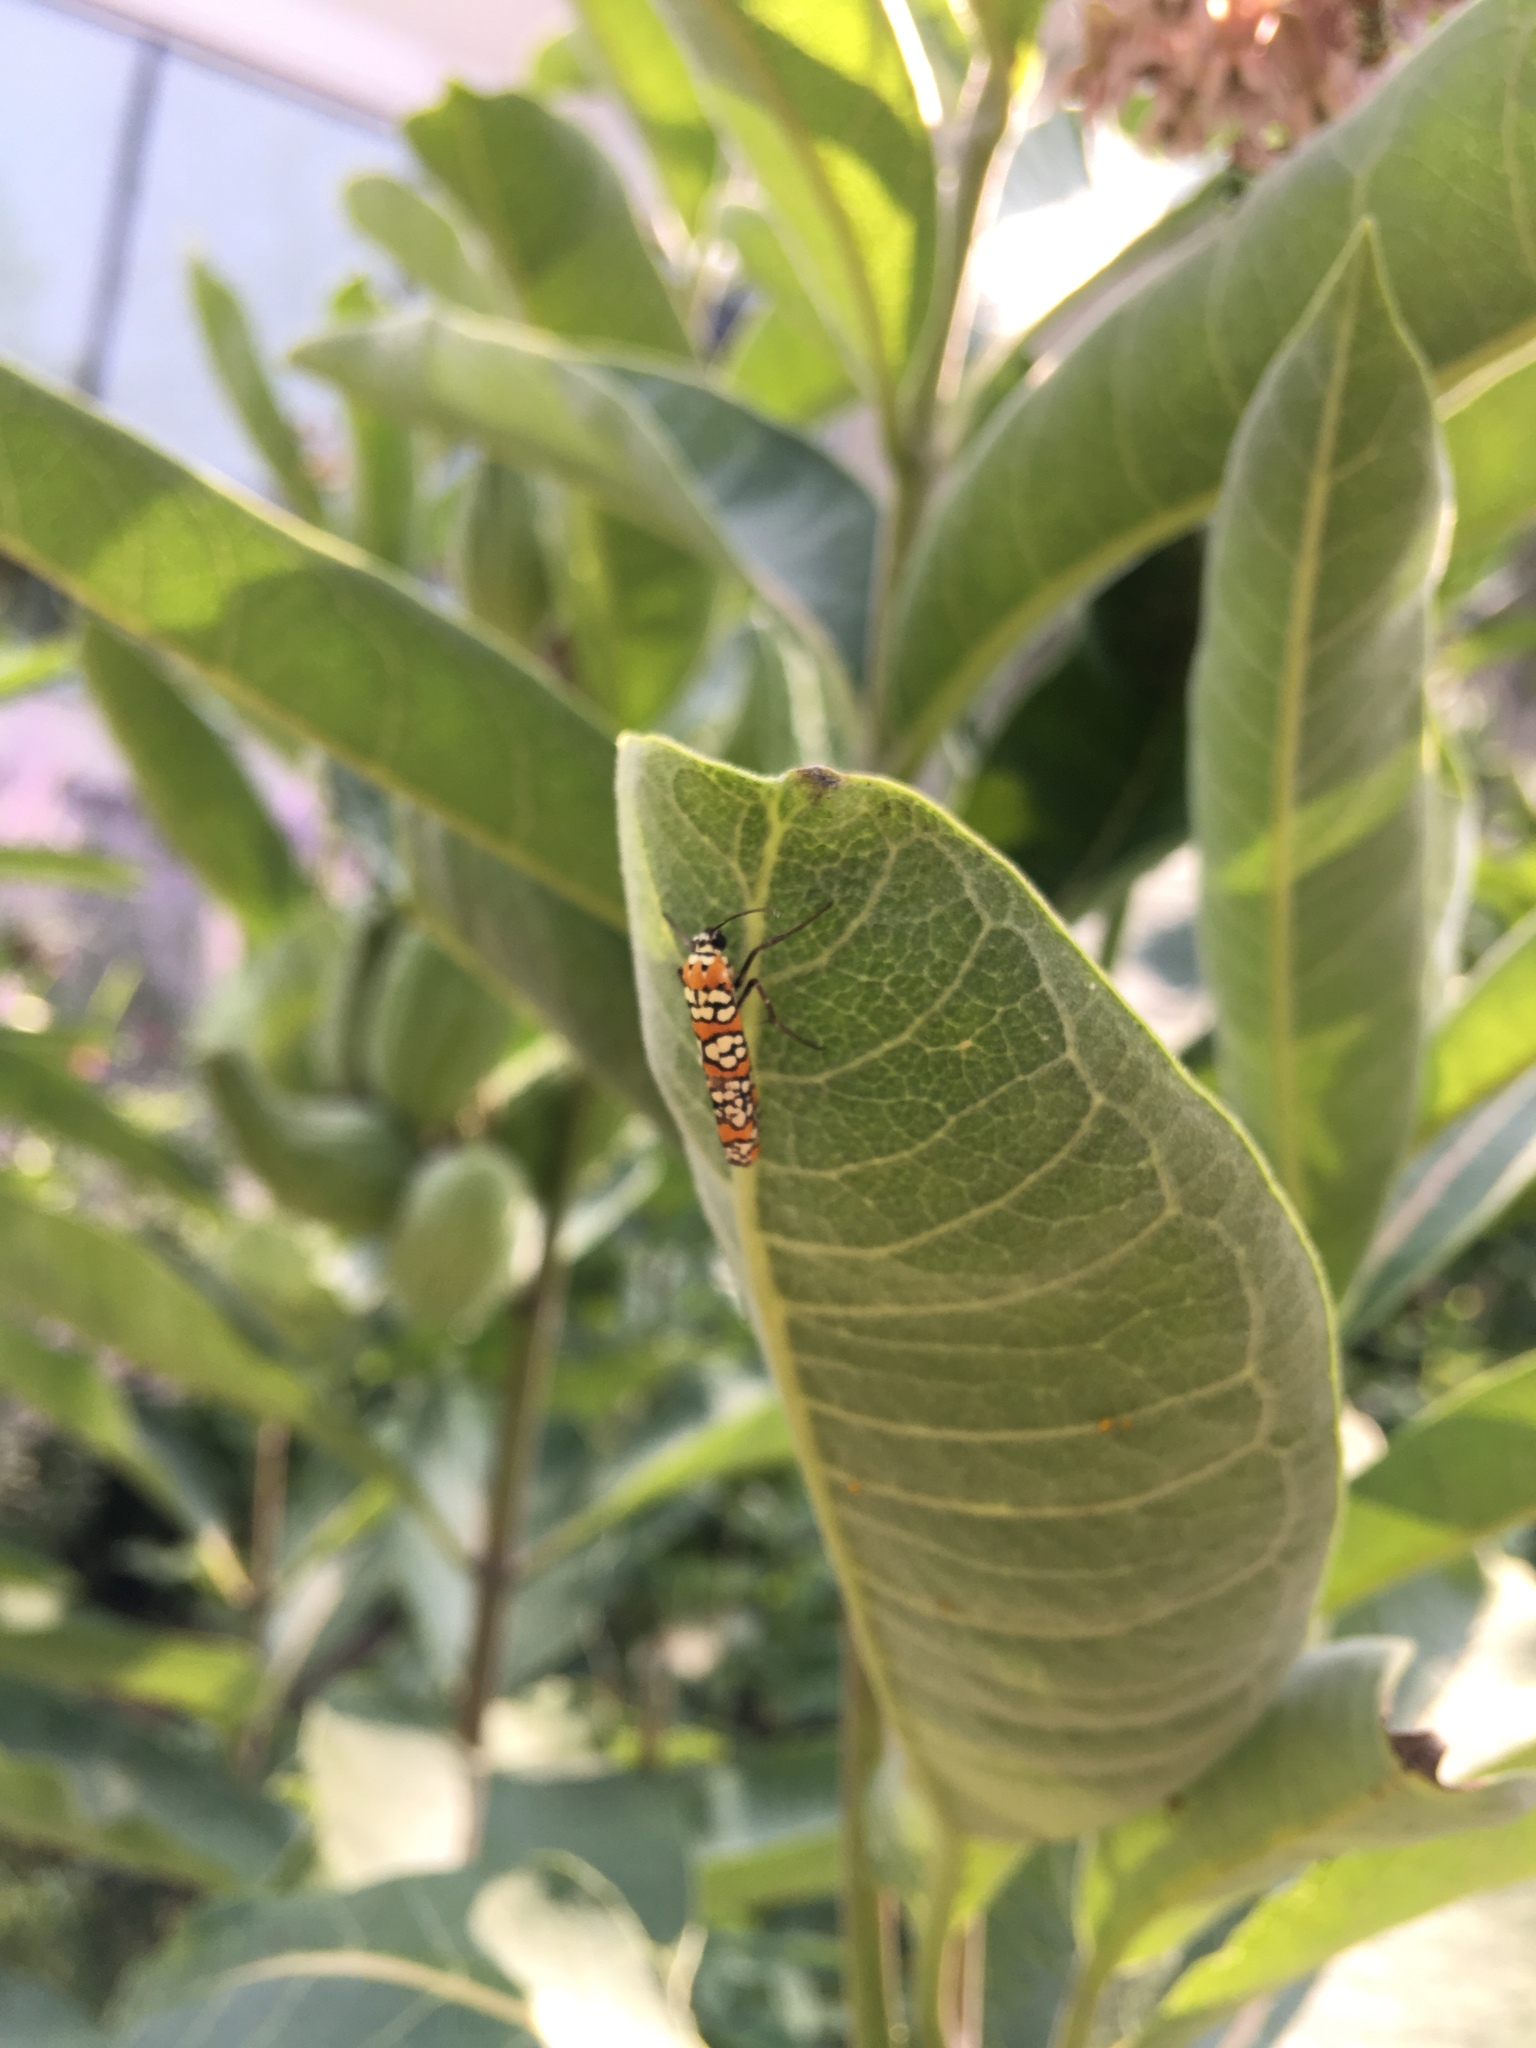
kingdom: Animalia
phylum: Arthropoda
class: Insecta
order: Lepidoptera
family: Attevidae
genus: Atteva
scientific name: Atteva punctella
